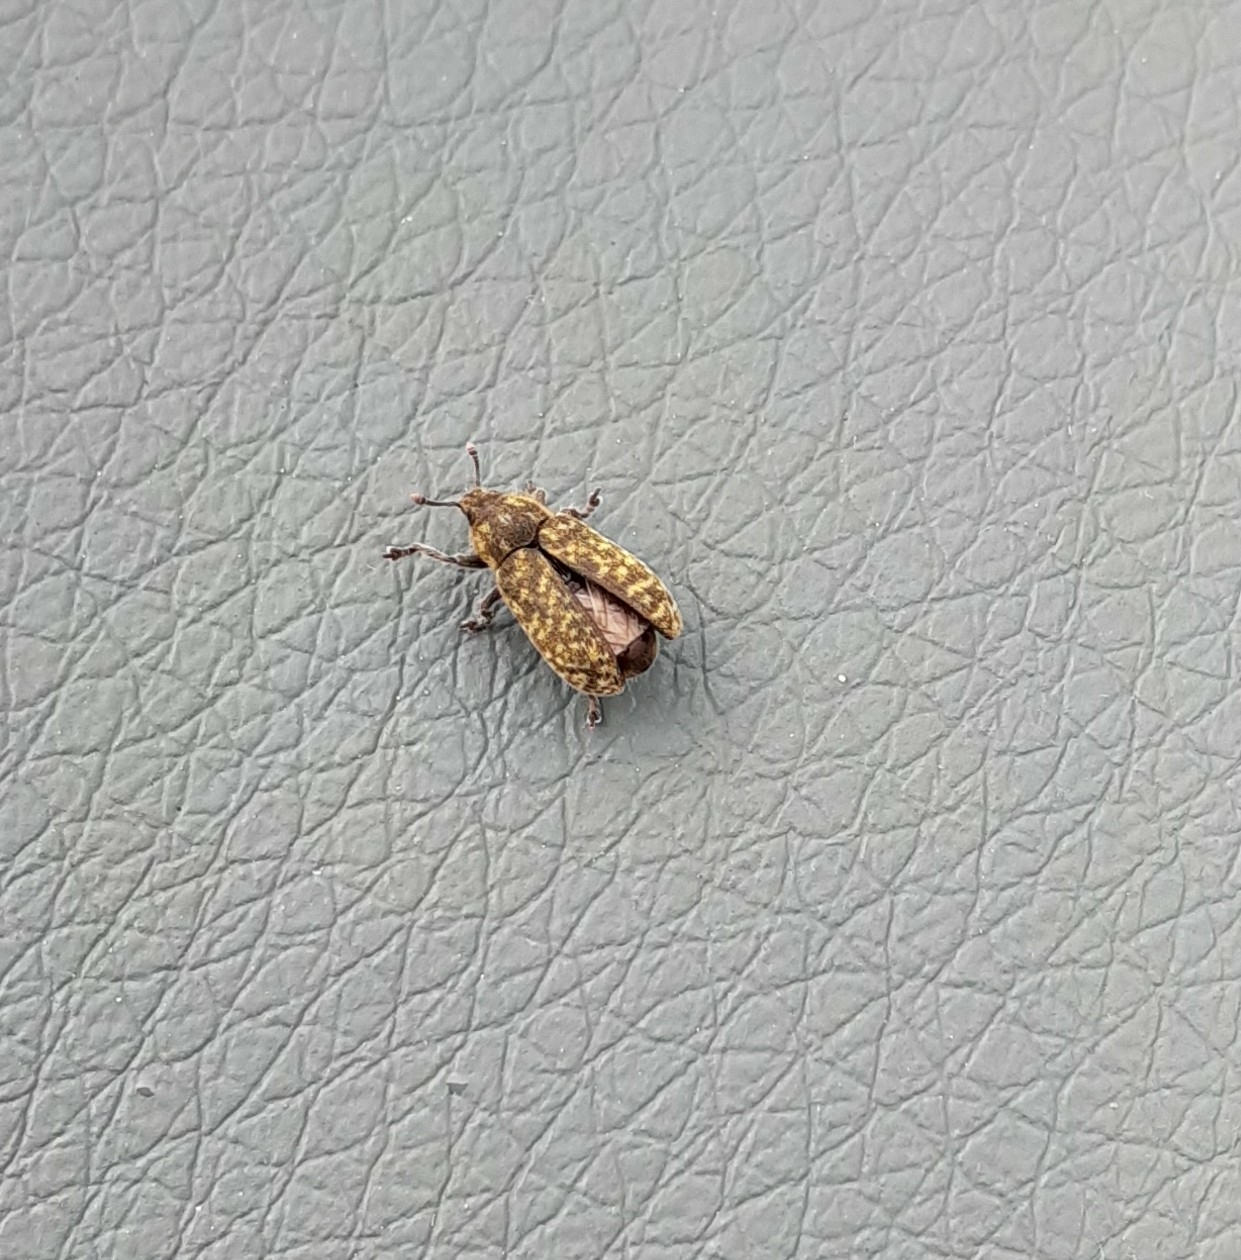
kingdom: Animalia
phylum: Arthropoda
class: Insecta
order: Coleoptera
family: Curculionidae
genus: Rhinocyllus
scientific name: Rhinocyllus conicus
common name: Weevil
